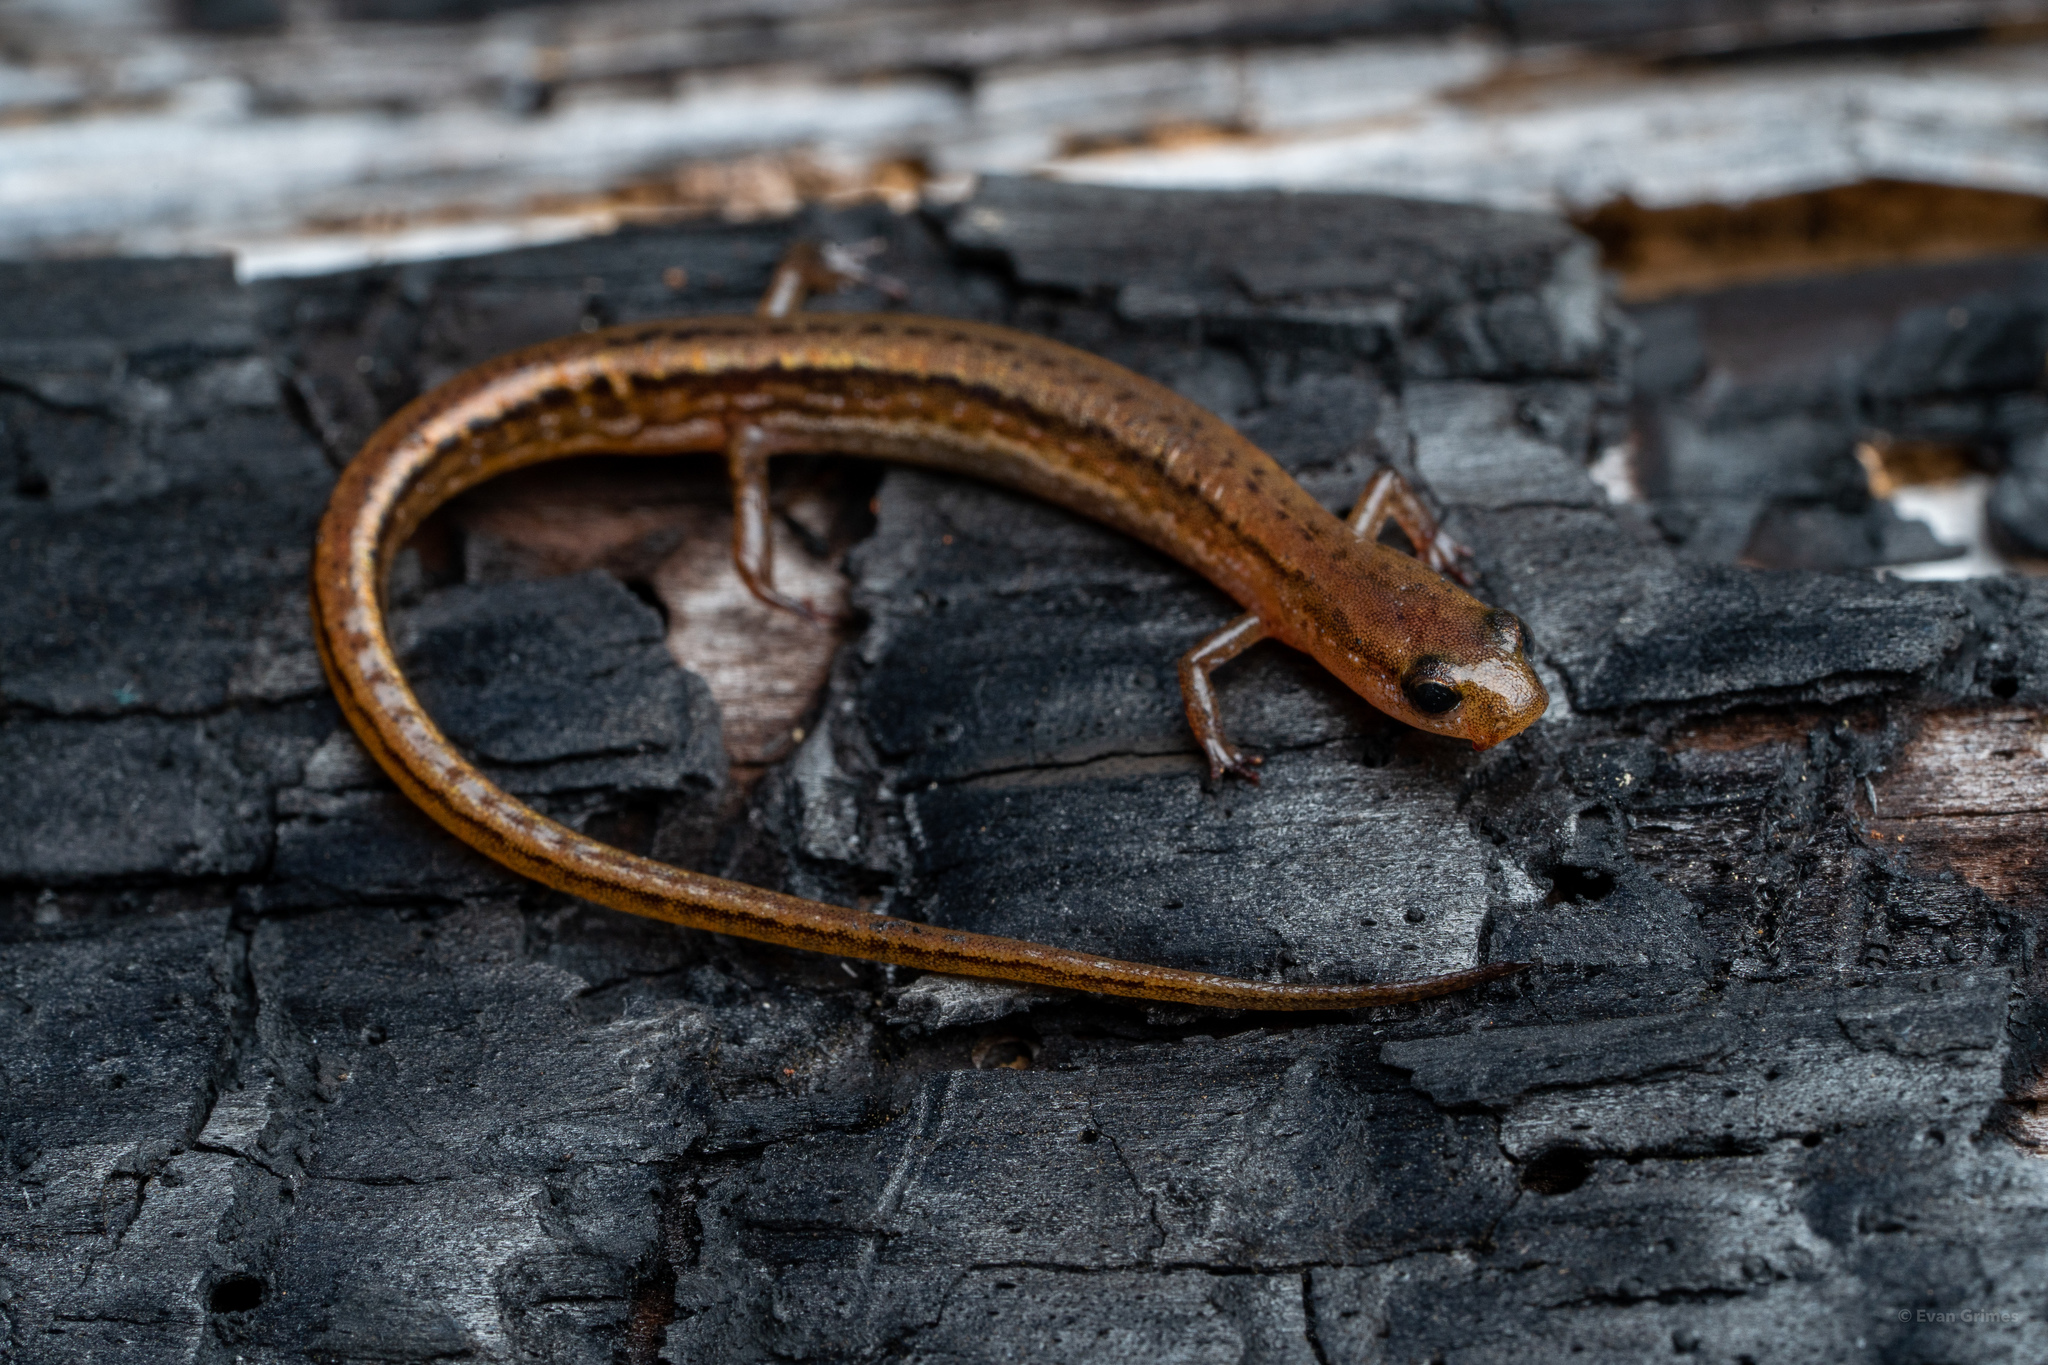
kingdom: Animalia
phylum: Chordata
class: Amphibia
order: Caudata
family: Plethodontidae
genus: Eurycea
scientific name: Eurycea sphagnicola
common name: Bog dwarf salamander
